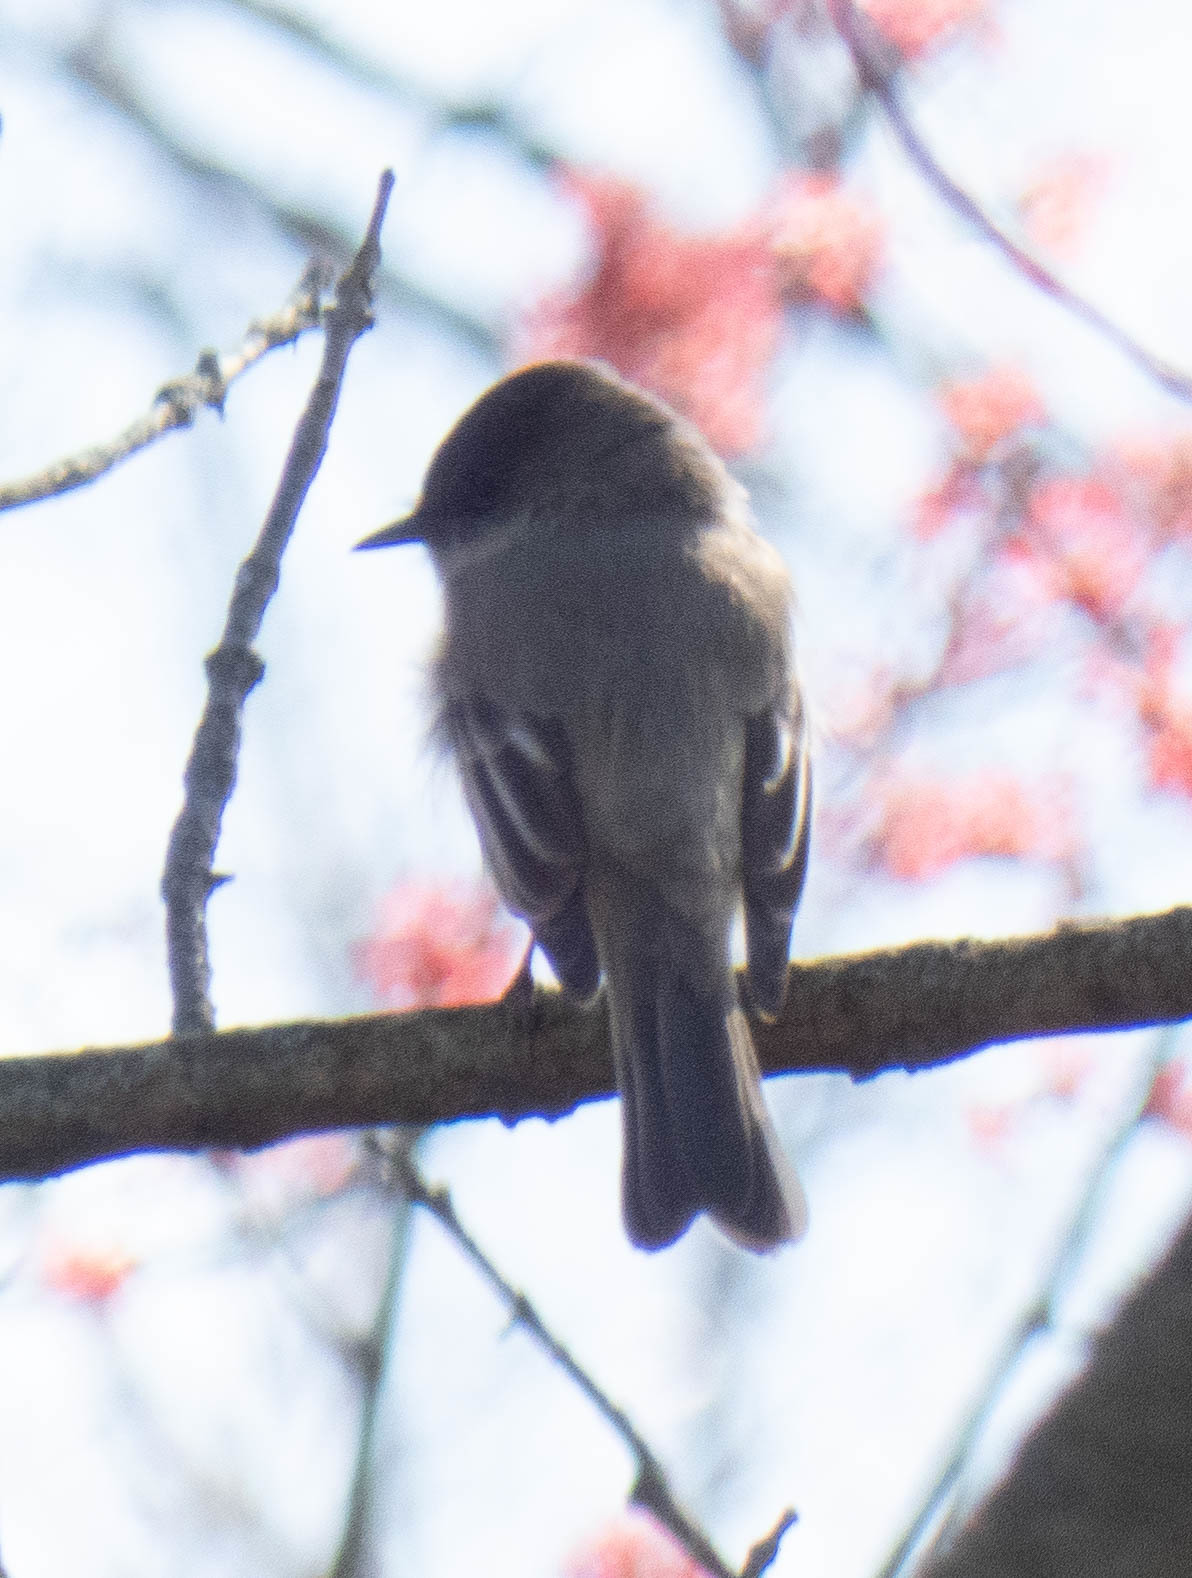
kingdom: Animalia
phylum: Chordata
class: Aves
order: Passeriformes
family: Tyrannidae
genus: Sayornis
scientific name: Sayornis phoebe
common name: Eastern phoebe
